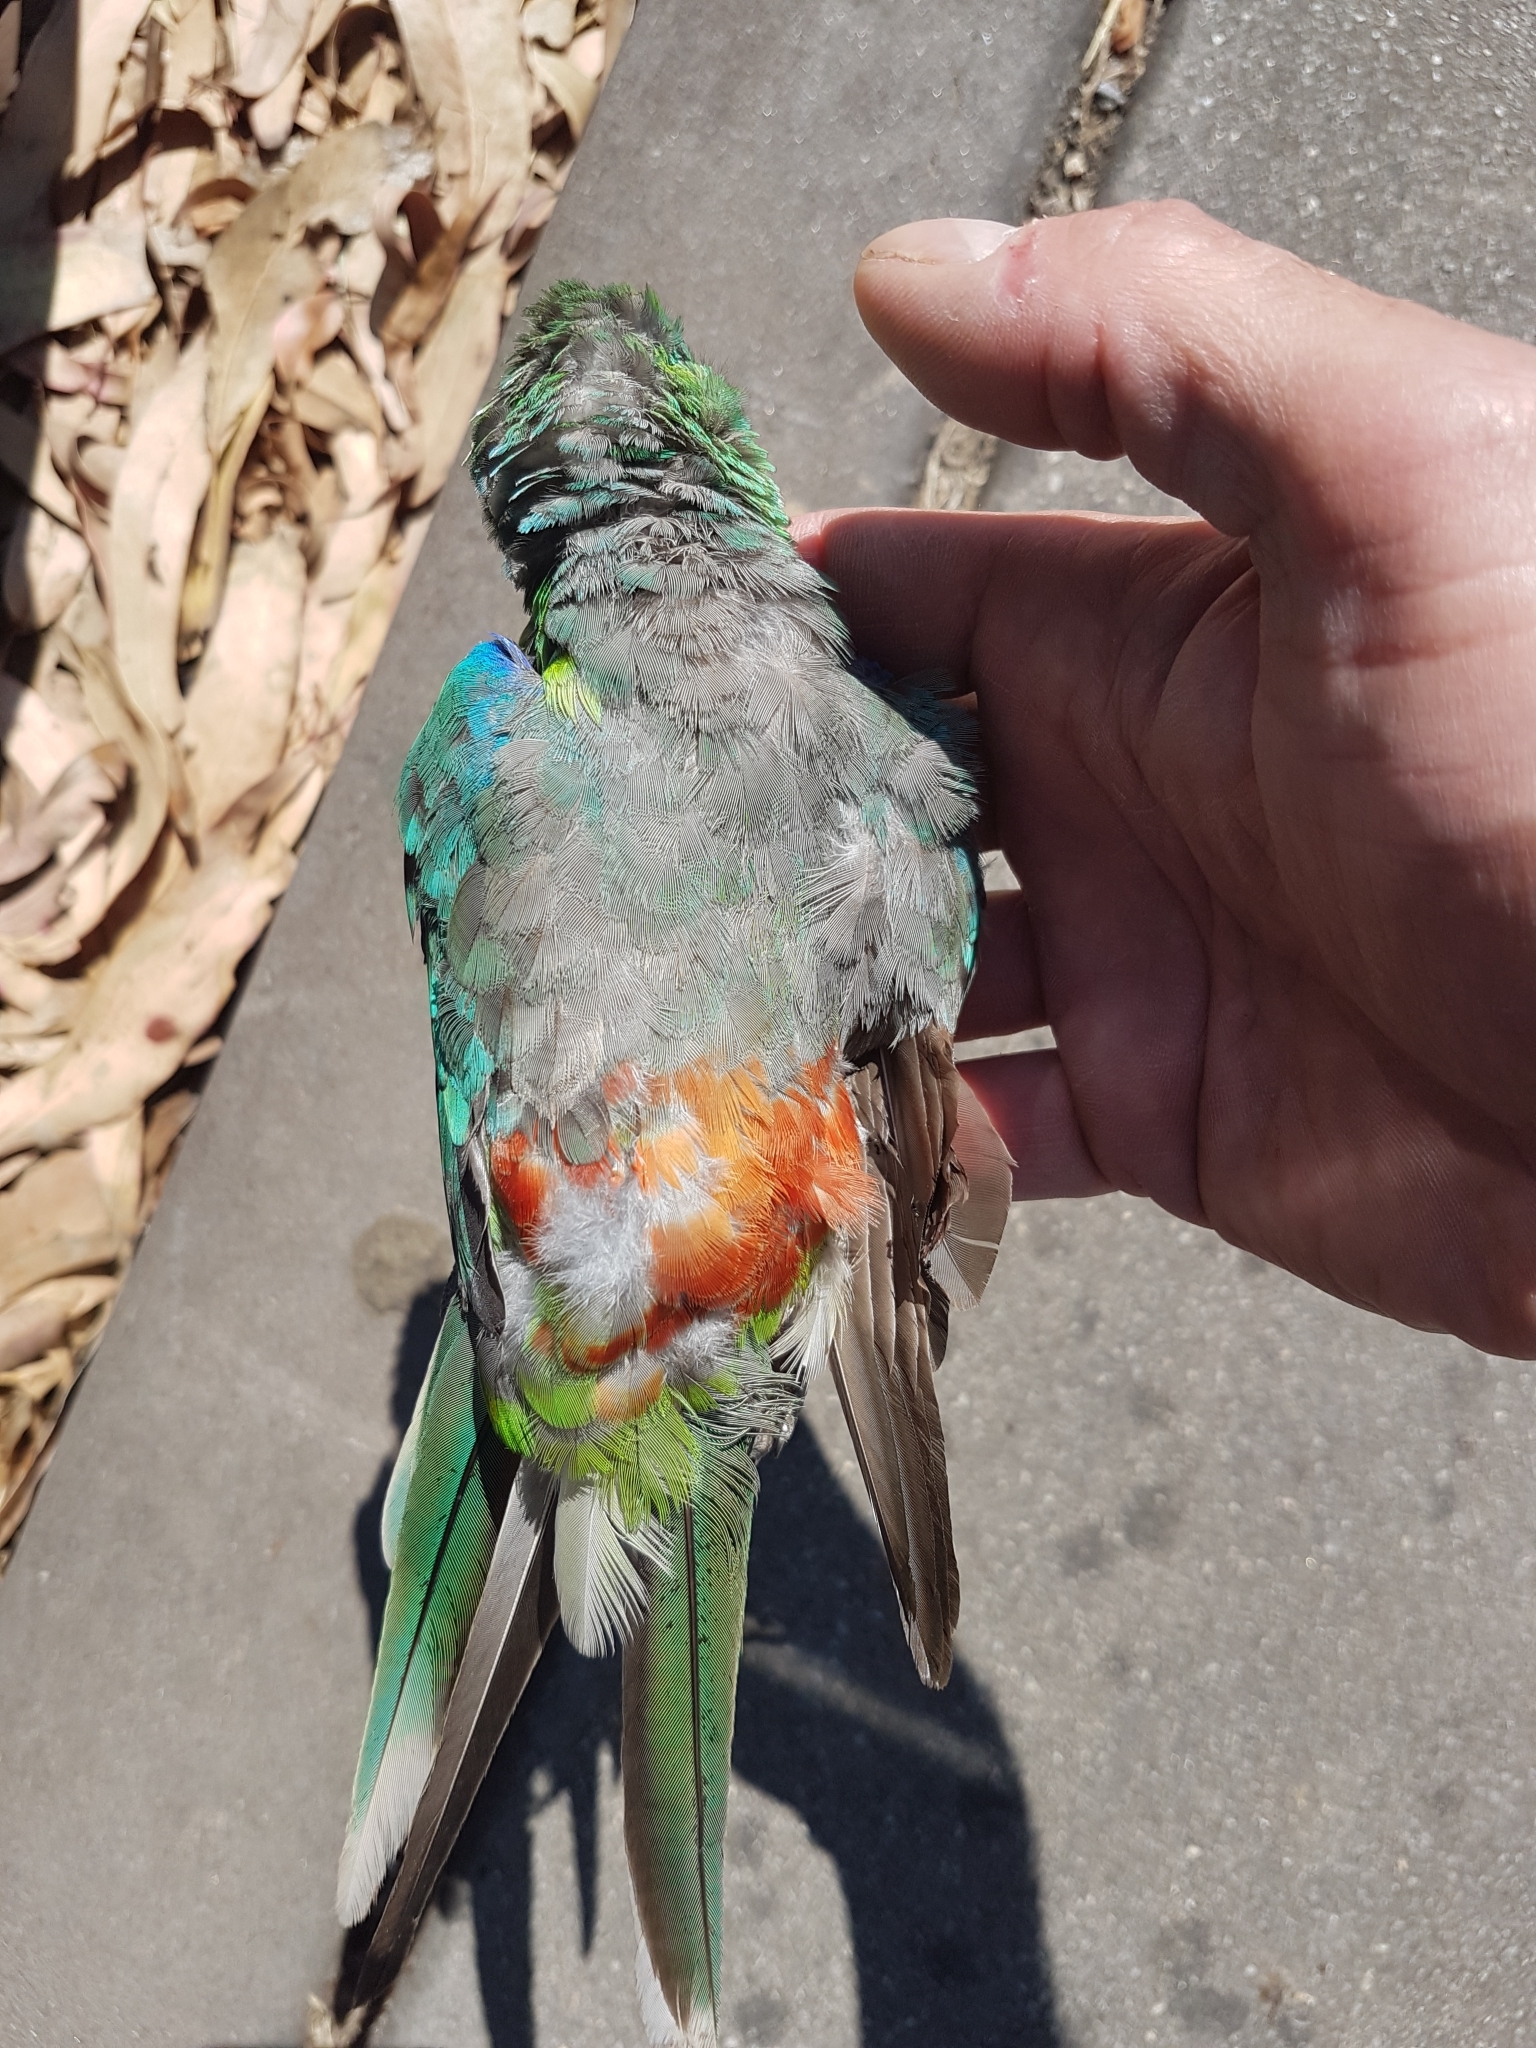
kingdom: Animalia
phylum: Chordata
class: Aves
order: Psittaciformes
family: Psittacidae
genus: Psephotus
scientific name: Psephotus haematonotus
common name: Red-rumped parrot
